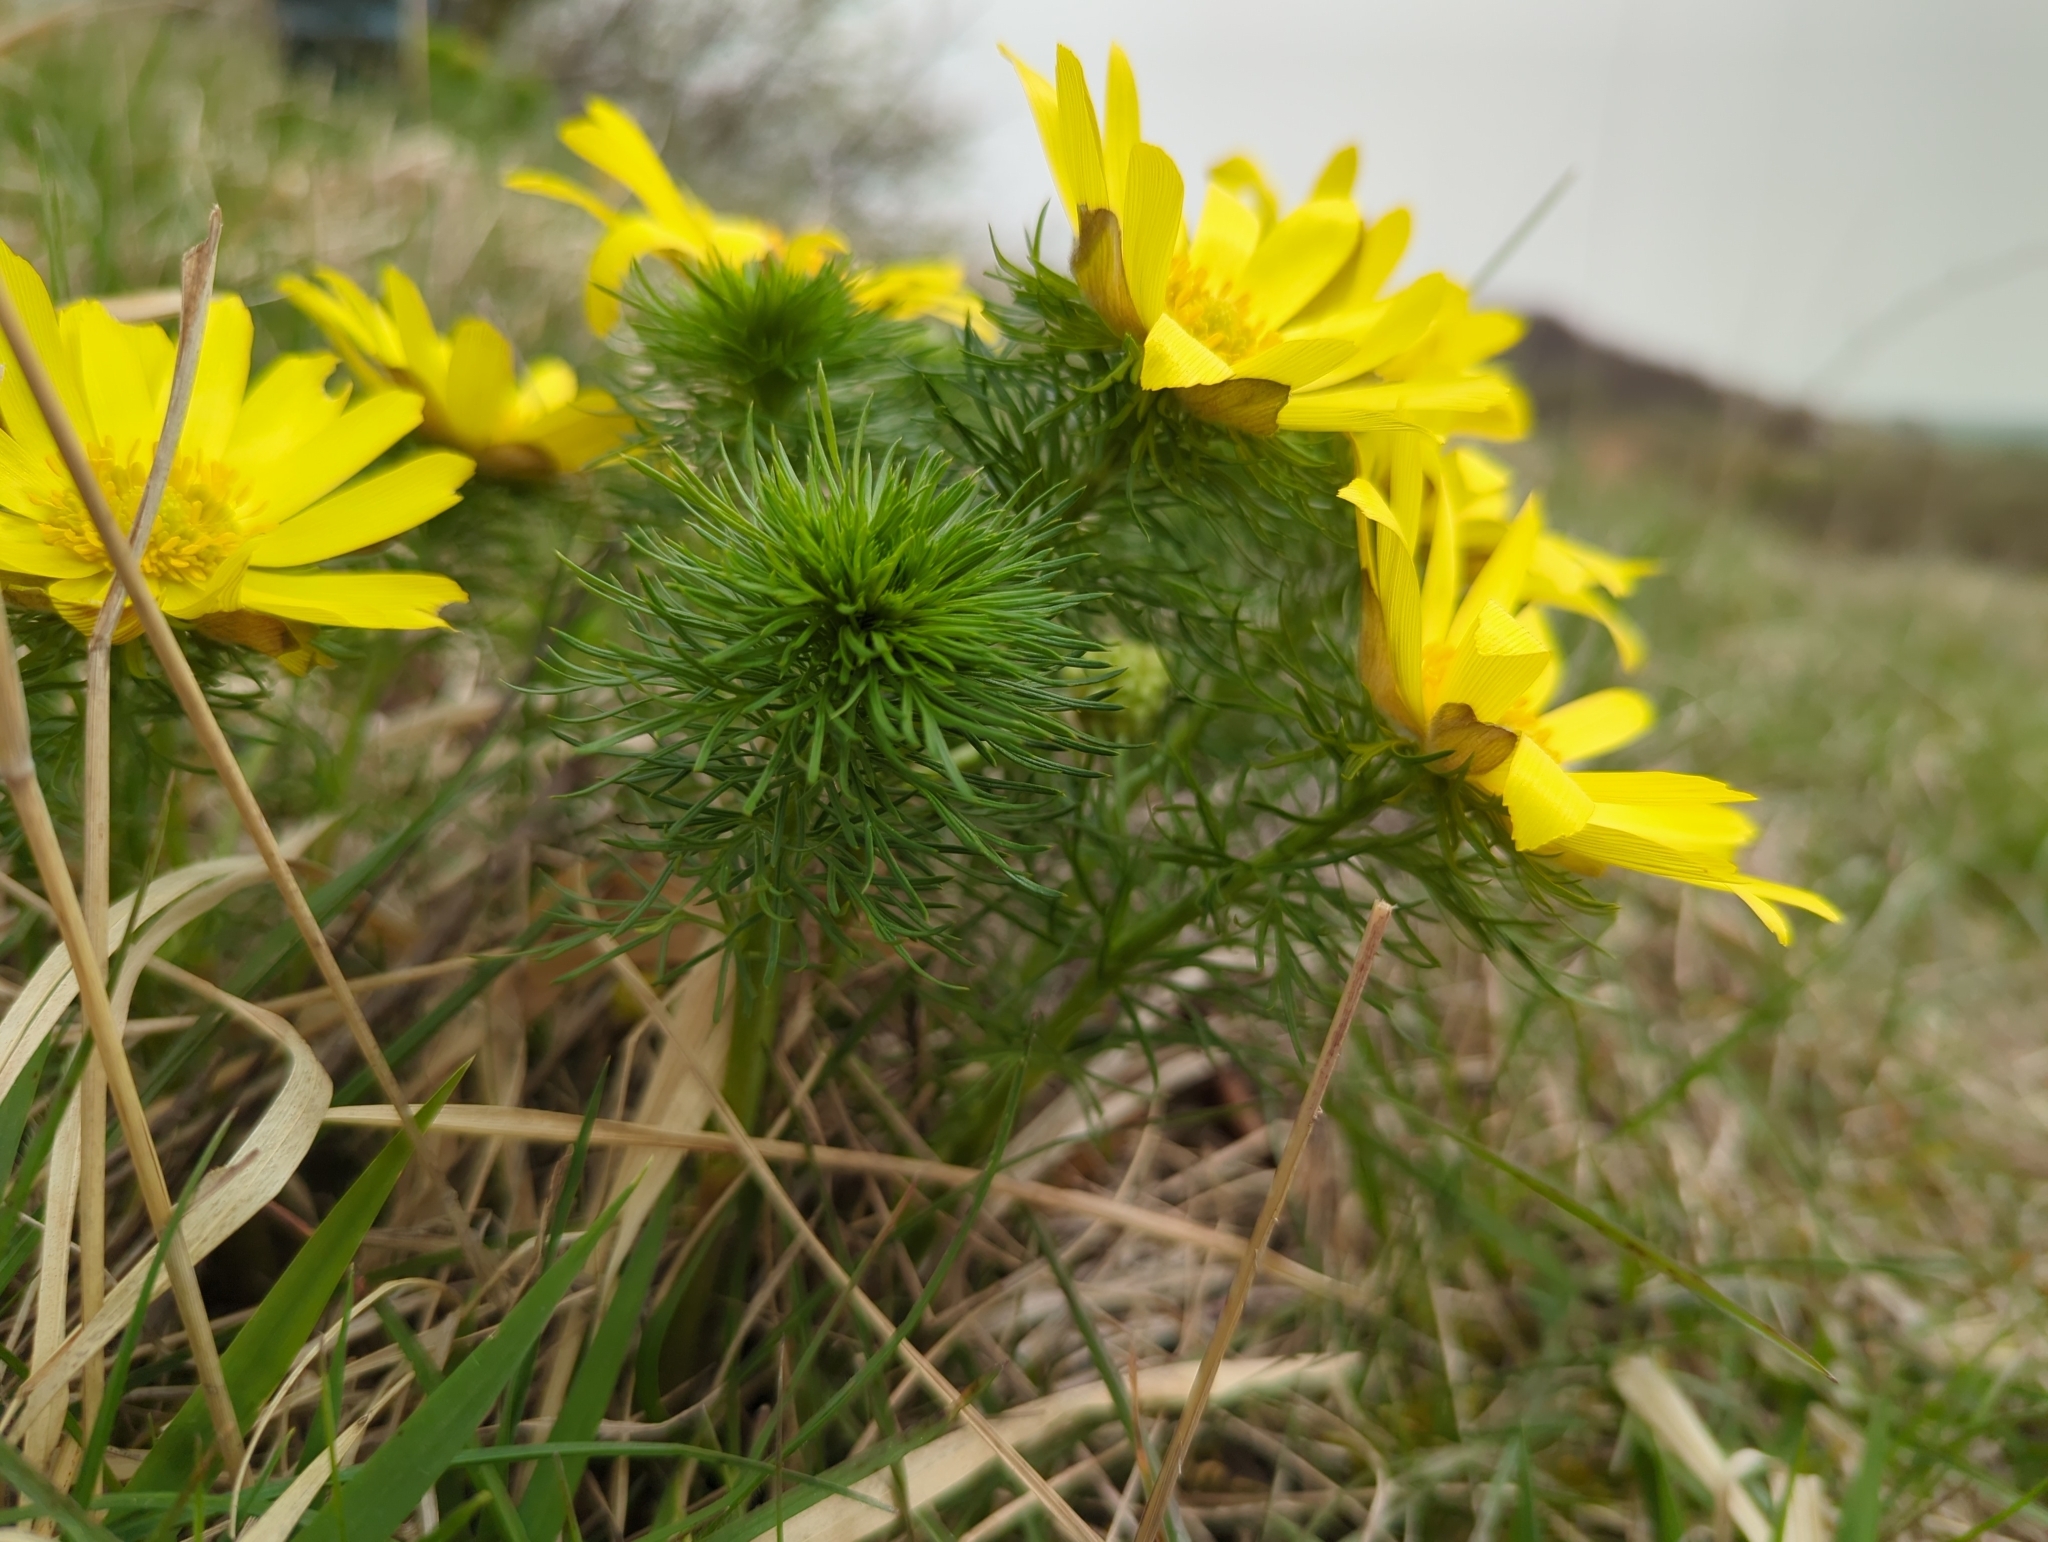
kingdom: Plantae
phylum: Tracheophyta
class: Magnoliopsida
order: Ranunculales
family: Ranunculaceae
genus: Adonis
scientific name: Adonis vernalis
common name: Yellow pheasants-eye
